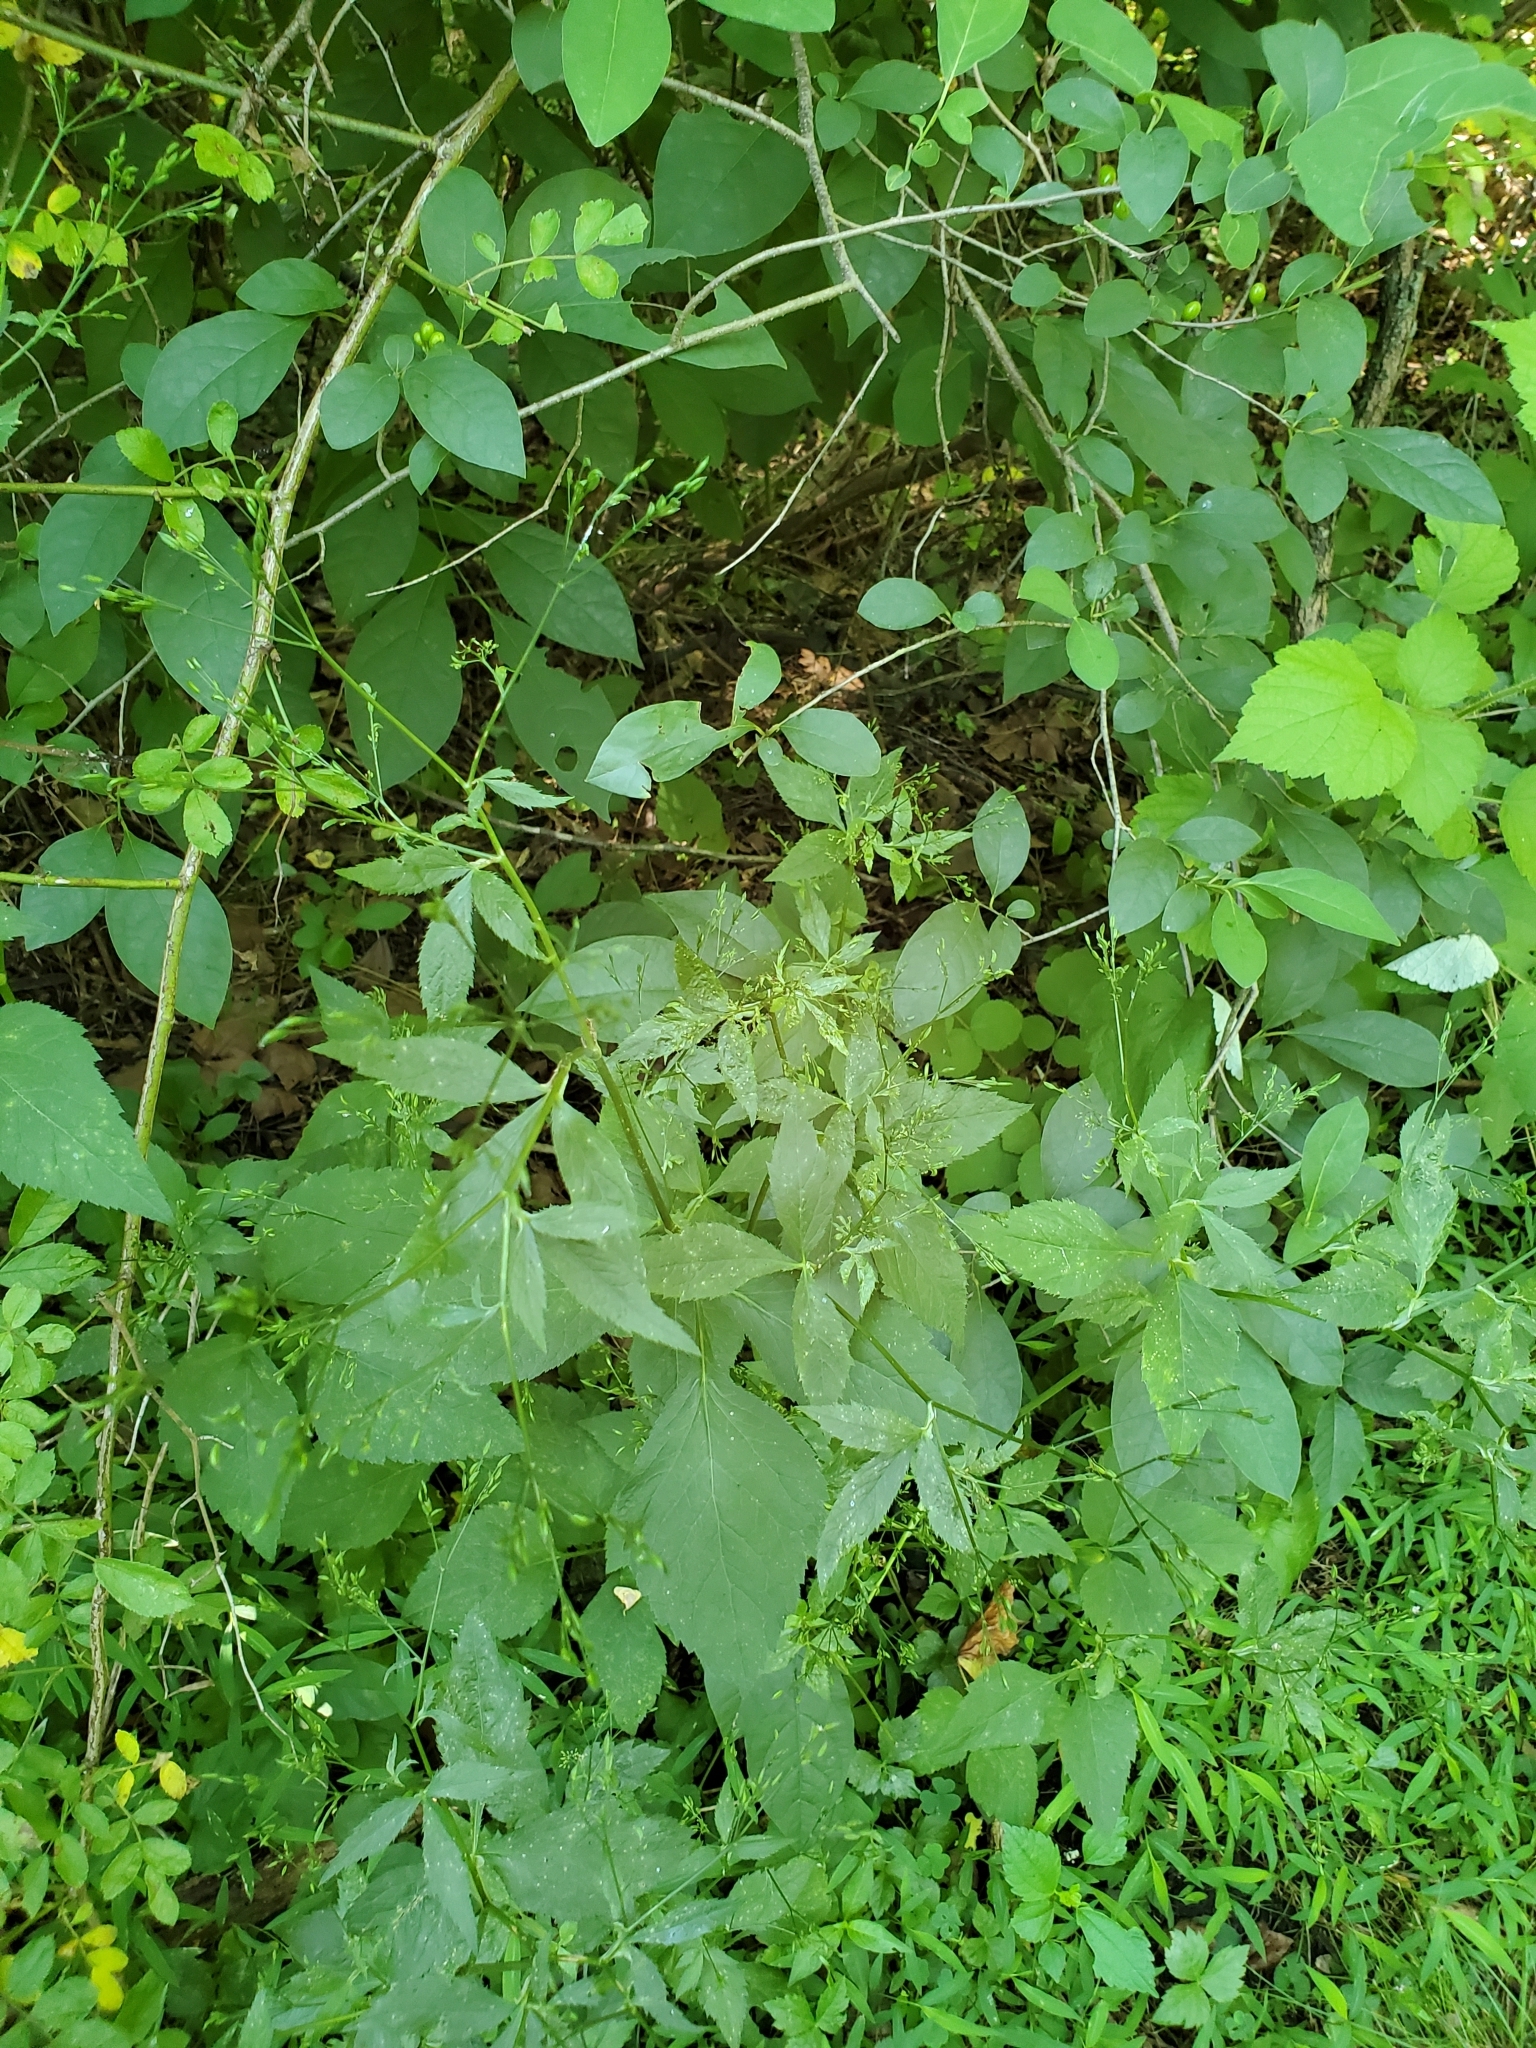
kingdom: Plantae
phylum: Tracheophyta
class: Magnoliopsida
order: Apiales
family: Apiaceae
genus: Cryptotaenia
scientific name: Cryptotaenia canadensis
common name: Honewort
